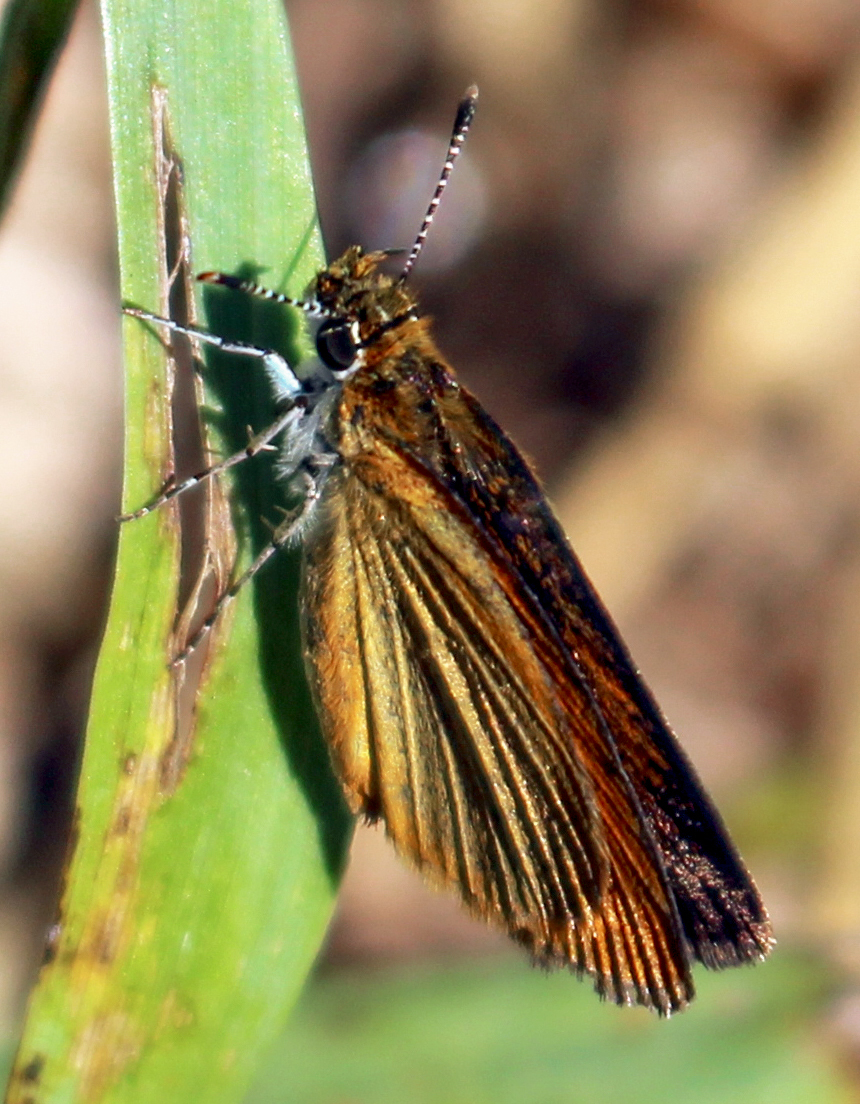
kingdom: Animalia
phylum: Arthropoda
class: Insecta
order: Lepidoptera
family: Hesperiidae
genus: Ancyloxypha
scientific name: Ancyloxypha numitor
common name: Least skipper
